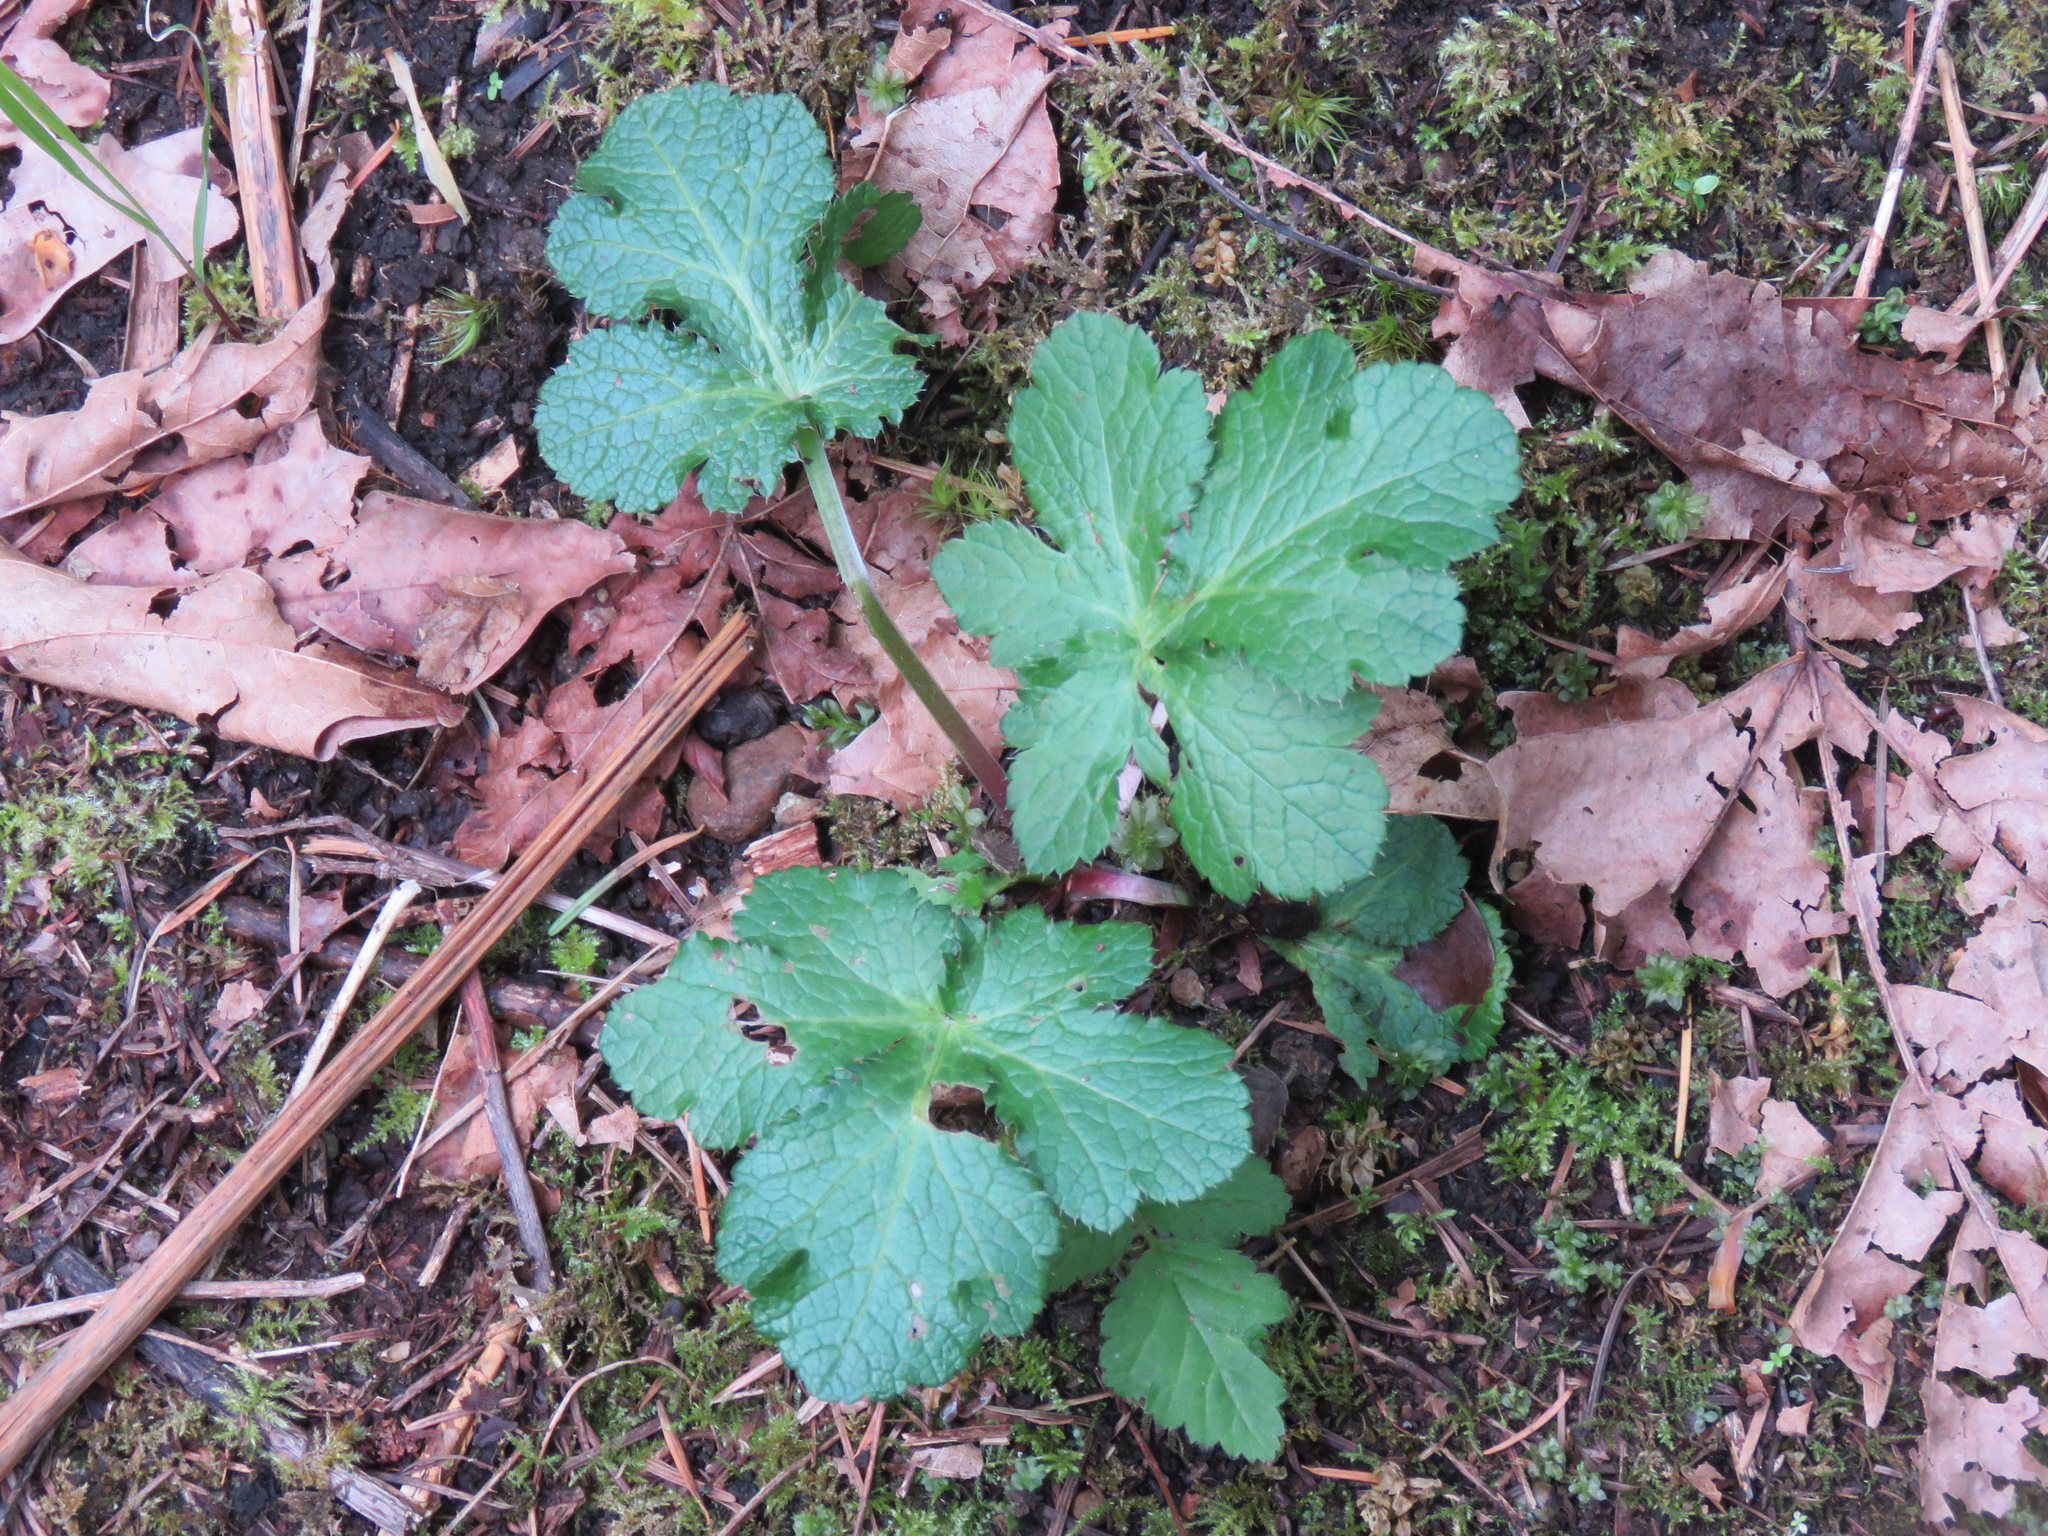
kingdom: Plantae
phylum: Tracheophyta
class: Magnoliopsida
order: Apiales
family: Apiaceae
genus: Sanicula
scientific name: Sanicula crassicaulis
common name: Western snakeroot
